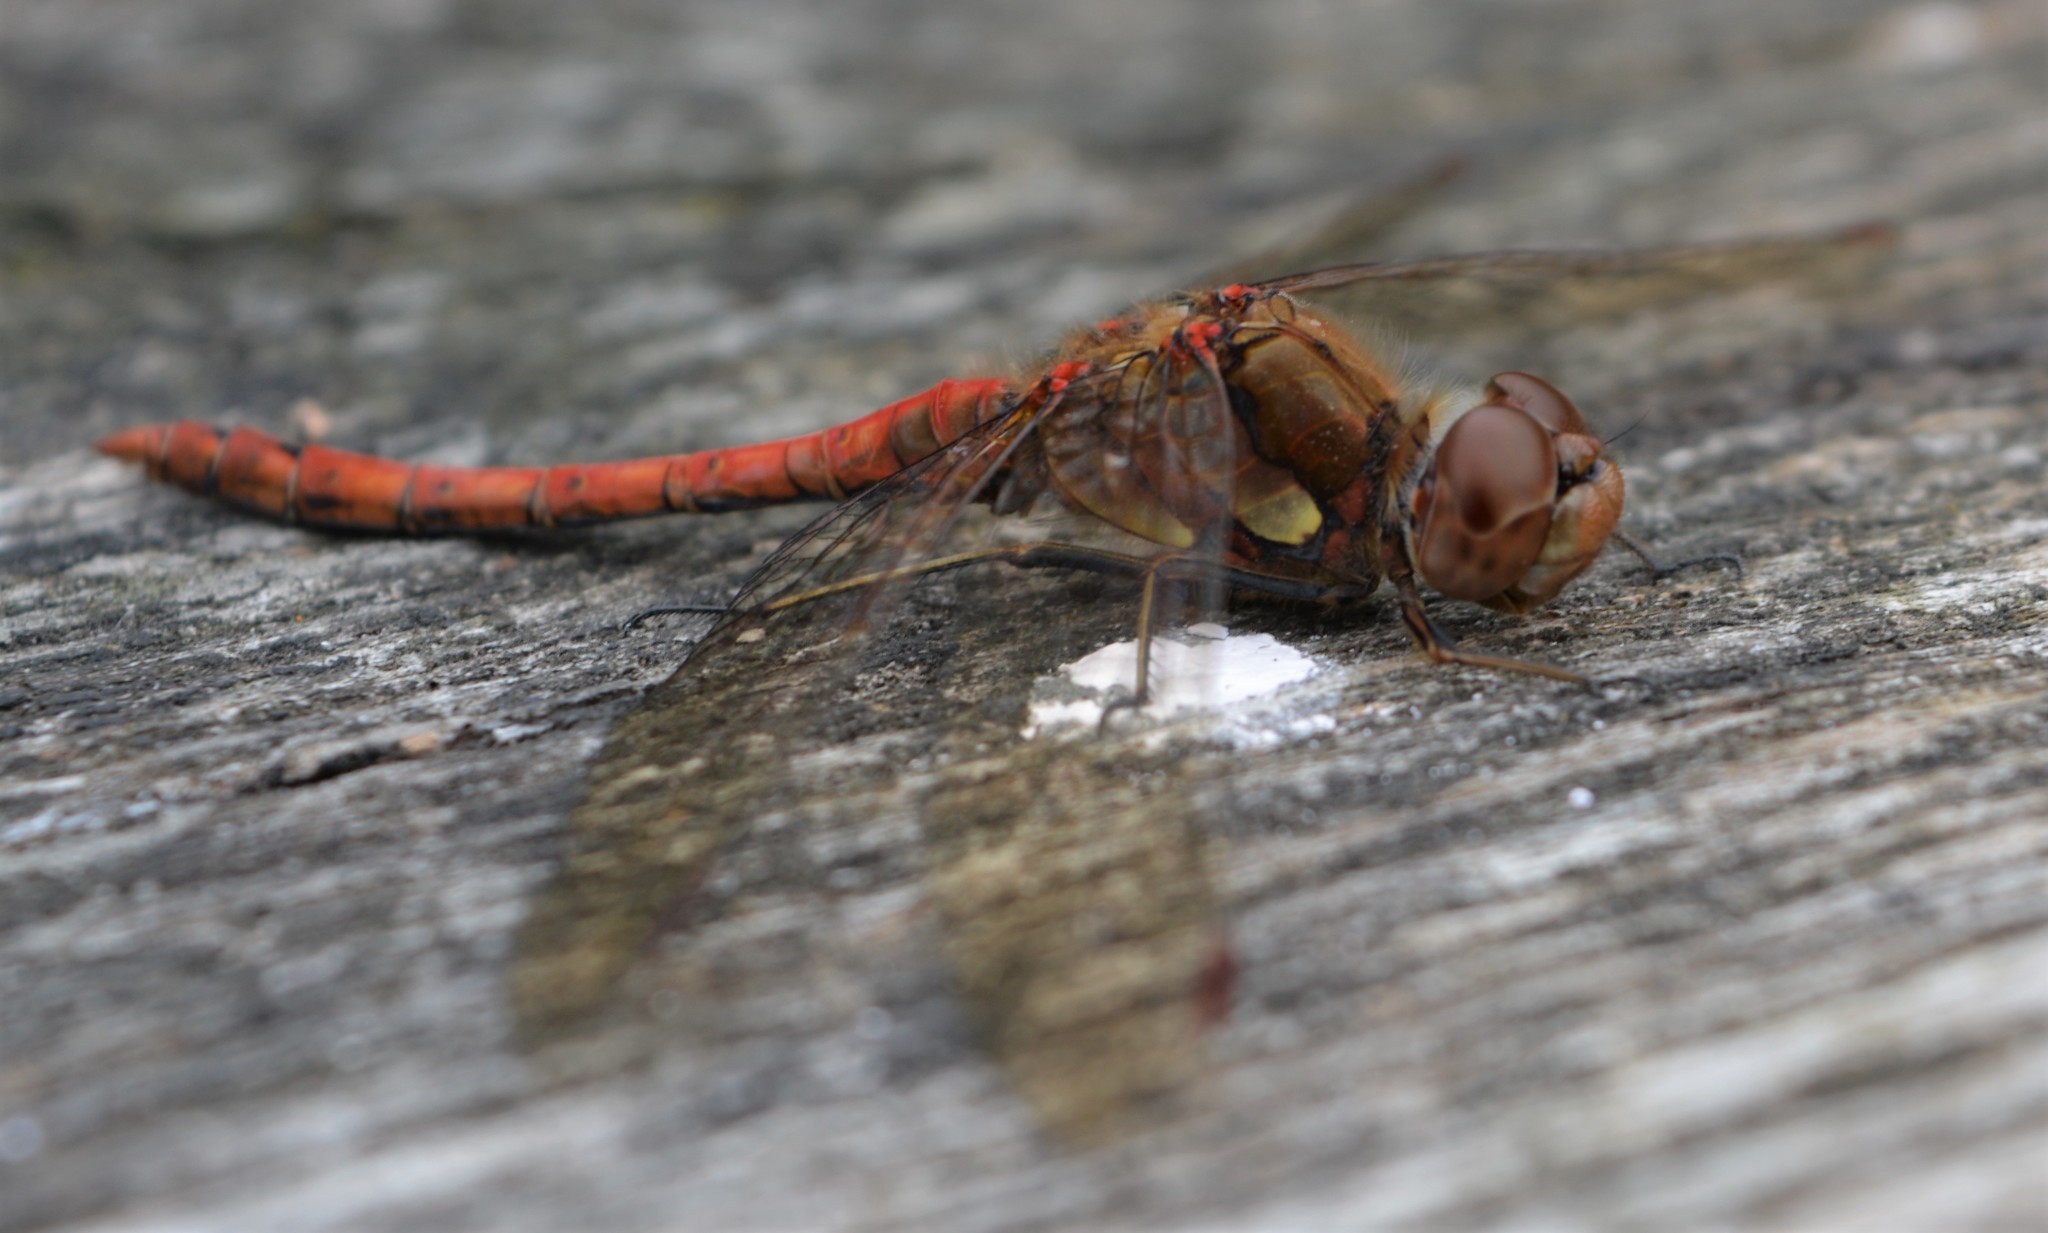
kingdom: Animalia
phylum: Arthropoda
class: Insecta
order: Odonata
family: Libellulidae
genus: Sympetrum
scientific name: Sympetrum striolatum
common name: Common darter
